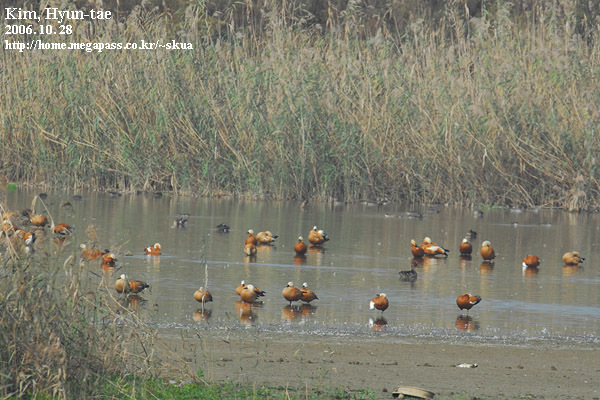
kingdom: Animalia
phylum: Chordata
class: Aves
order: Anseriformes
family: Anatidae
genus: Tadorna
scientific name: Tadorna ferruginea
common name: Ruddy shelduck
